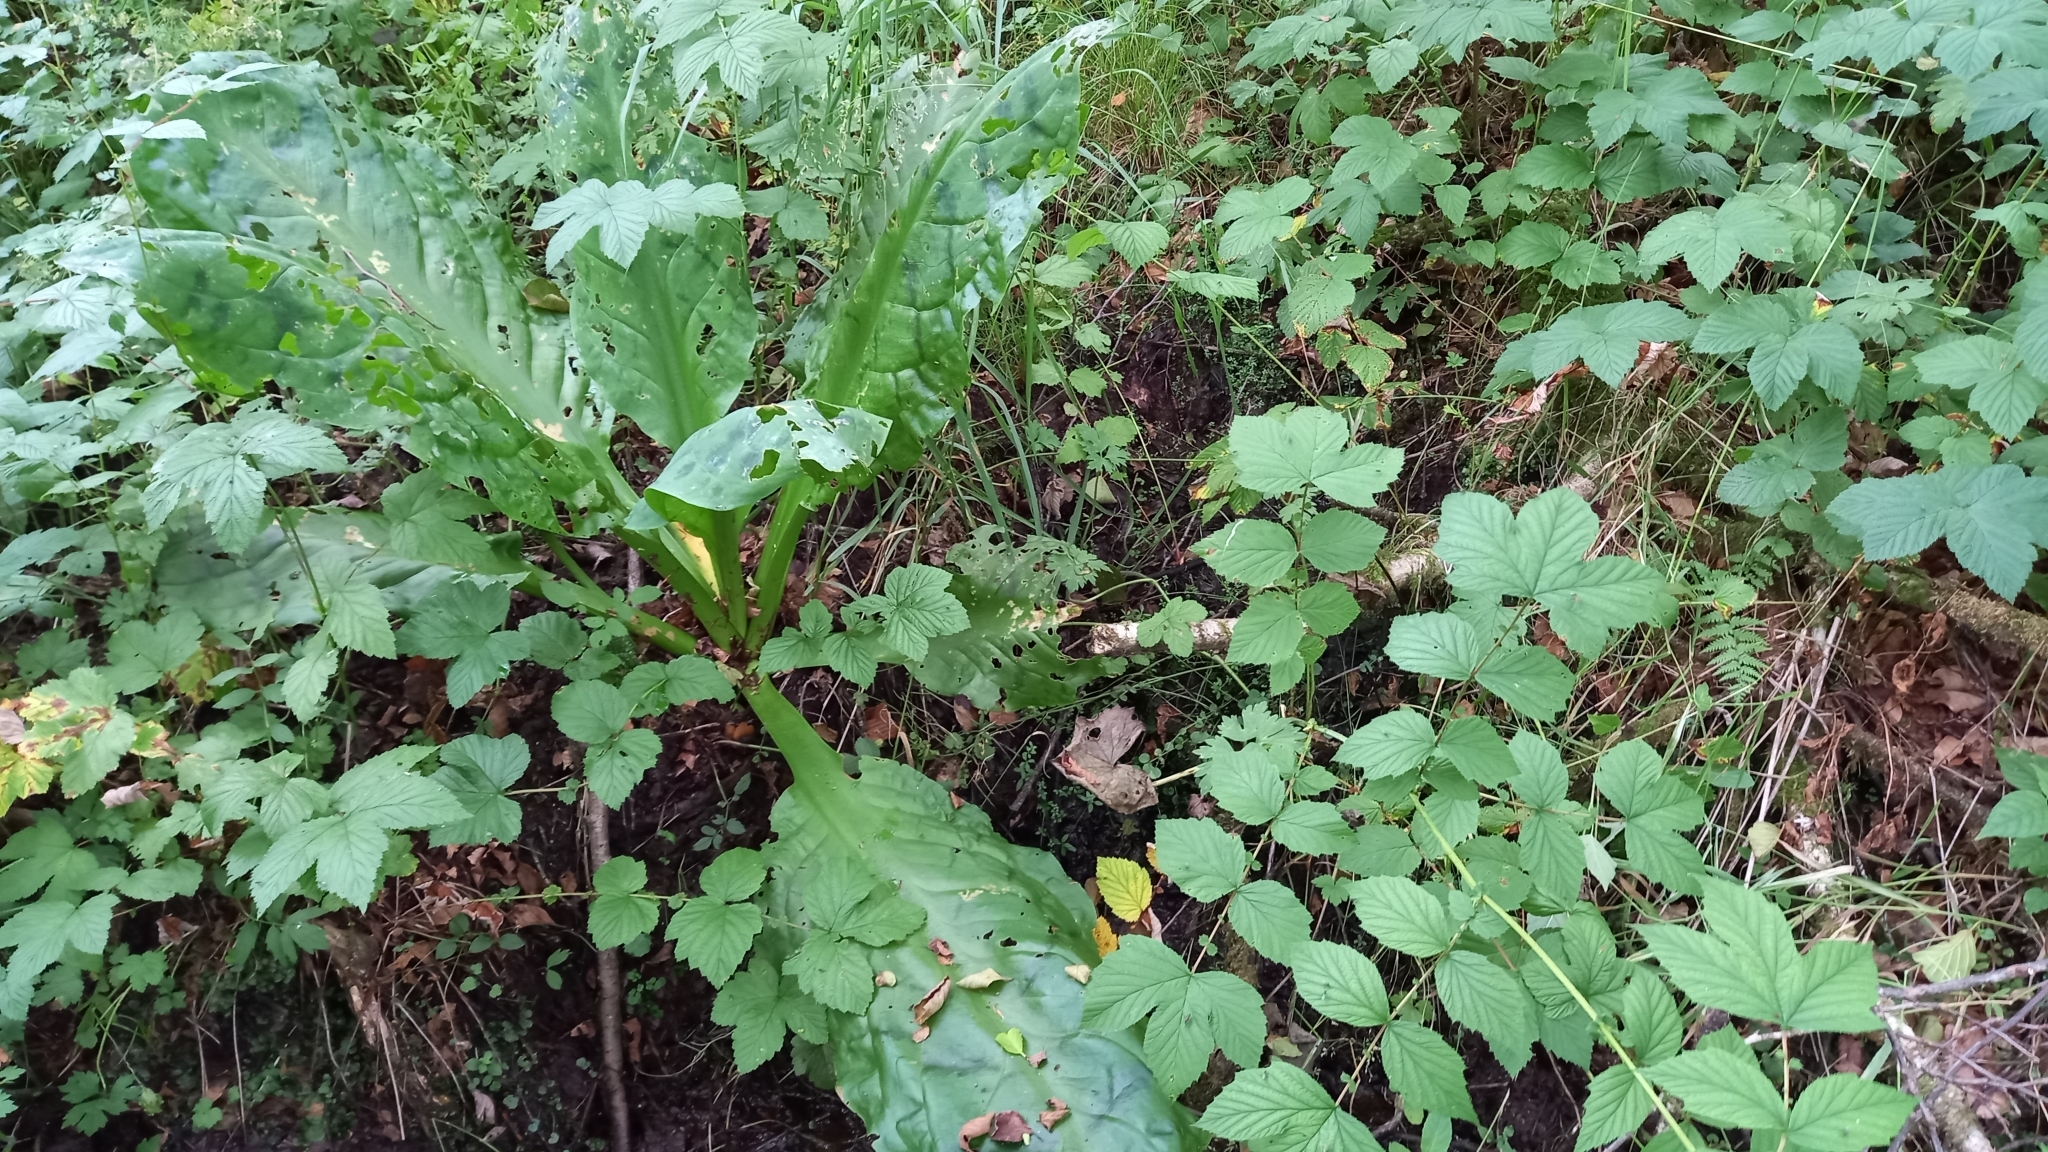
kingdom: Plantae
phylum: Tracheophyta
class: Liliopsida
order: Alismatales
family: Araceae
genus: Lysichiton
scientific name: Lysichiton americanus
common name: American skunk cabbage
